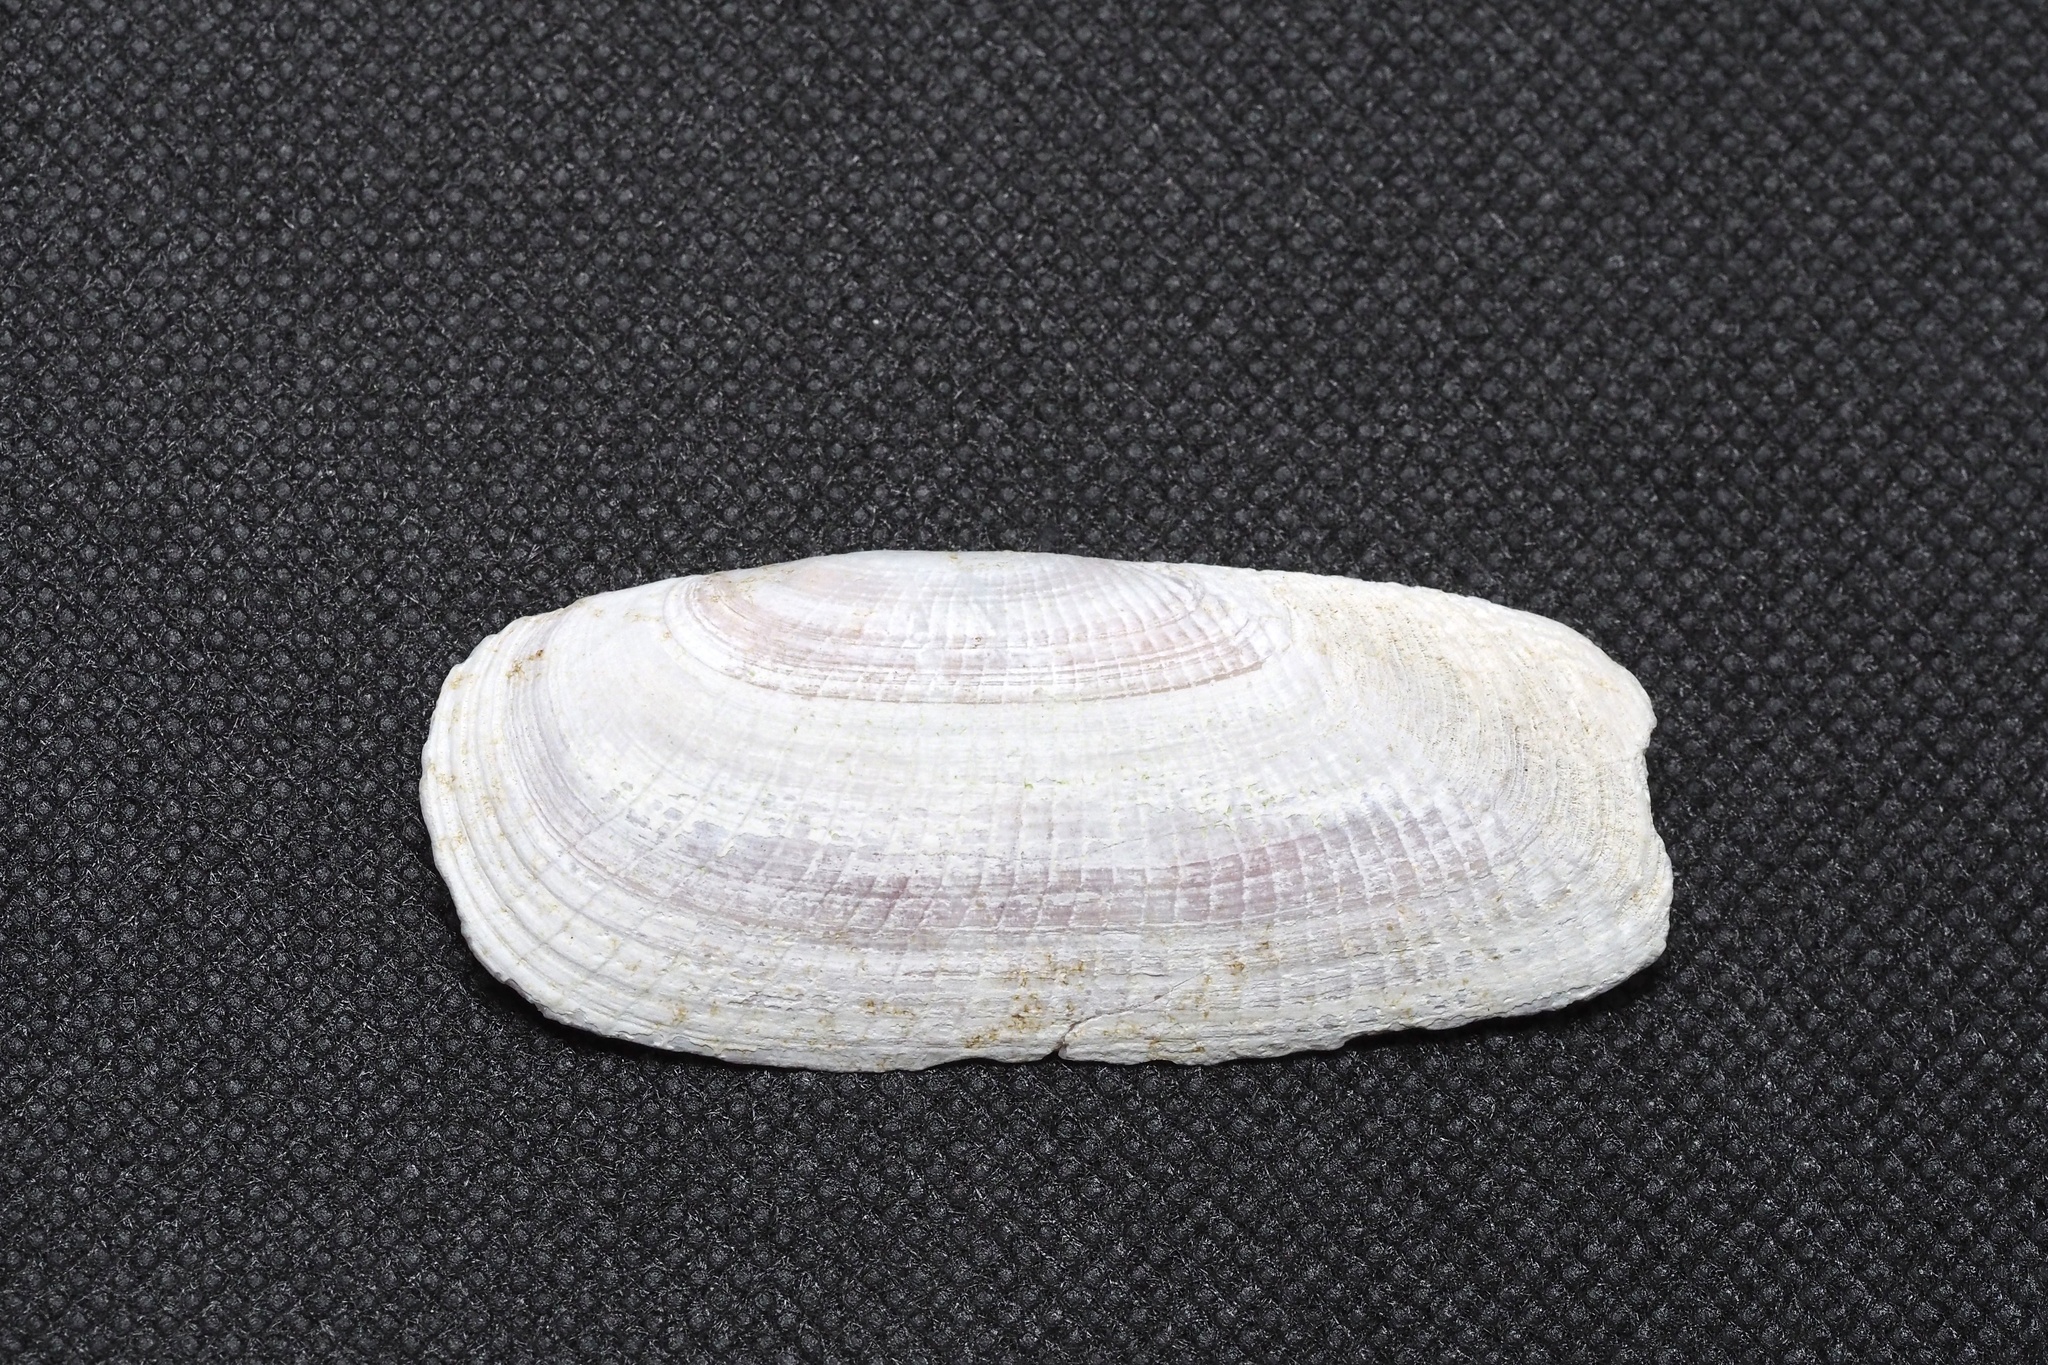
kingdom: Animalia
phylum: Mollusca
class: Bivalvia
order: Cardiida
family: Solecurtidae
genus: Solecurtus
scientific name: Solecurtus divaricatus
